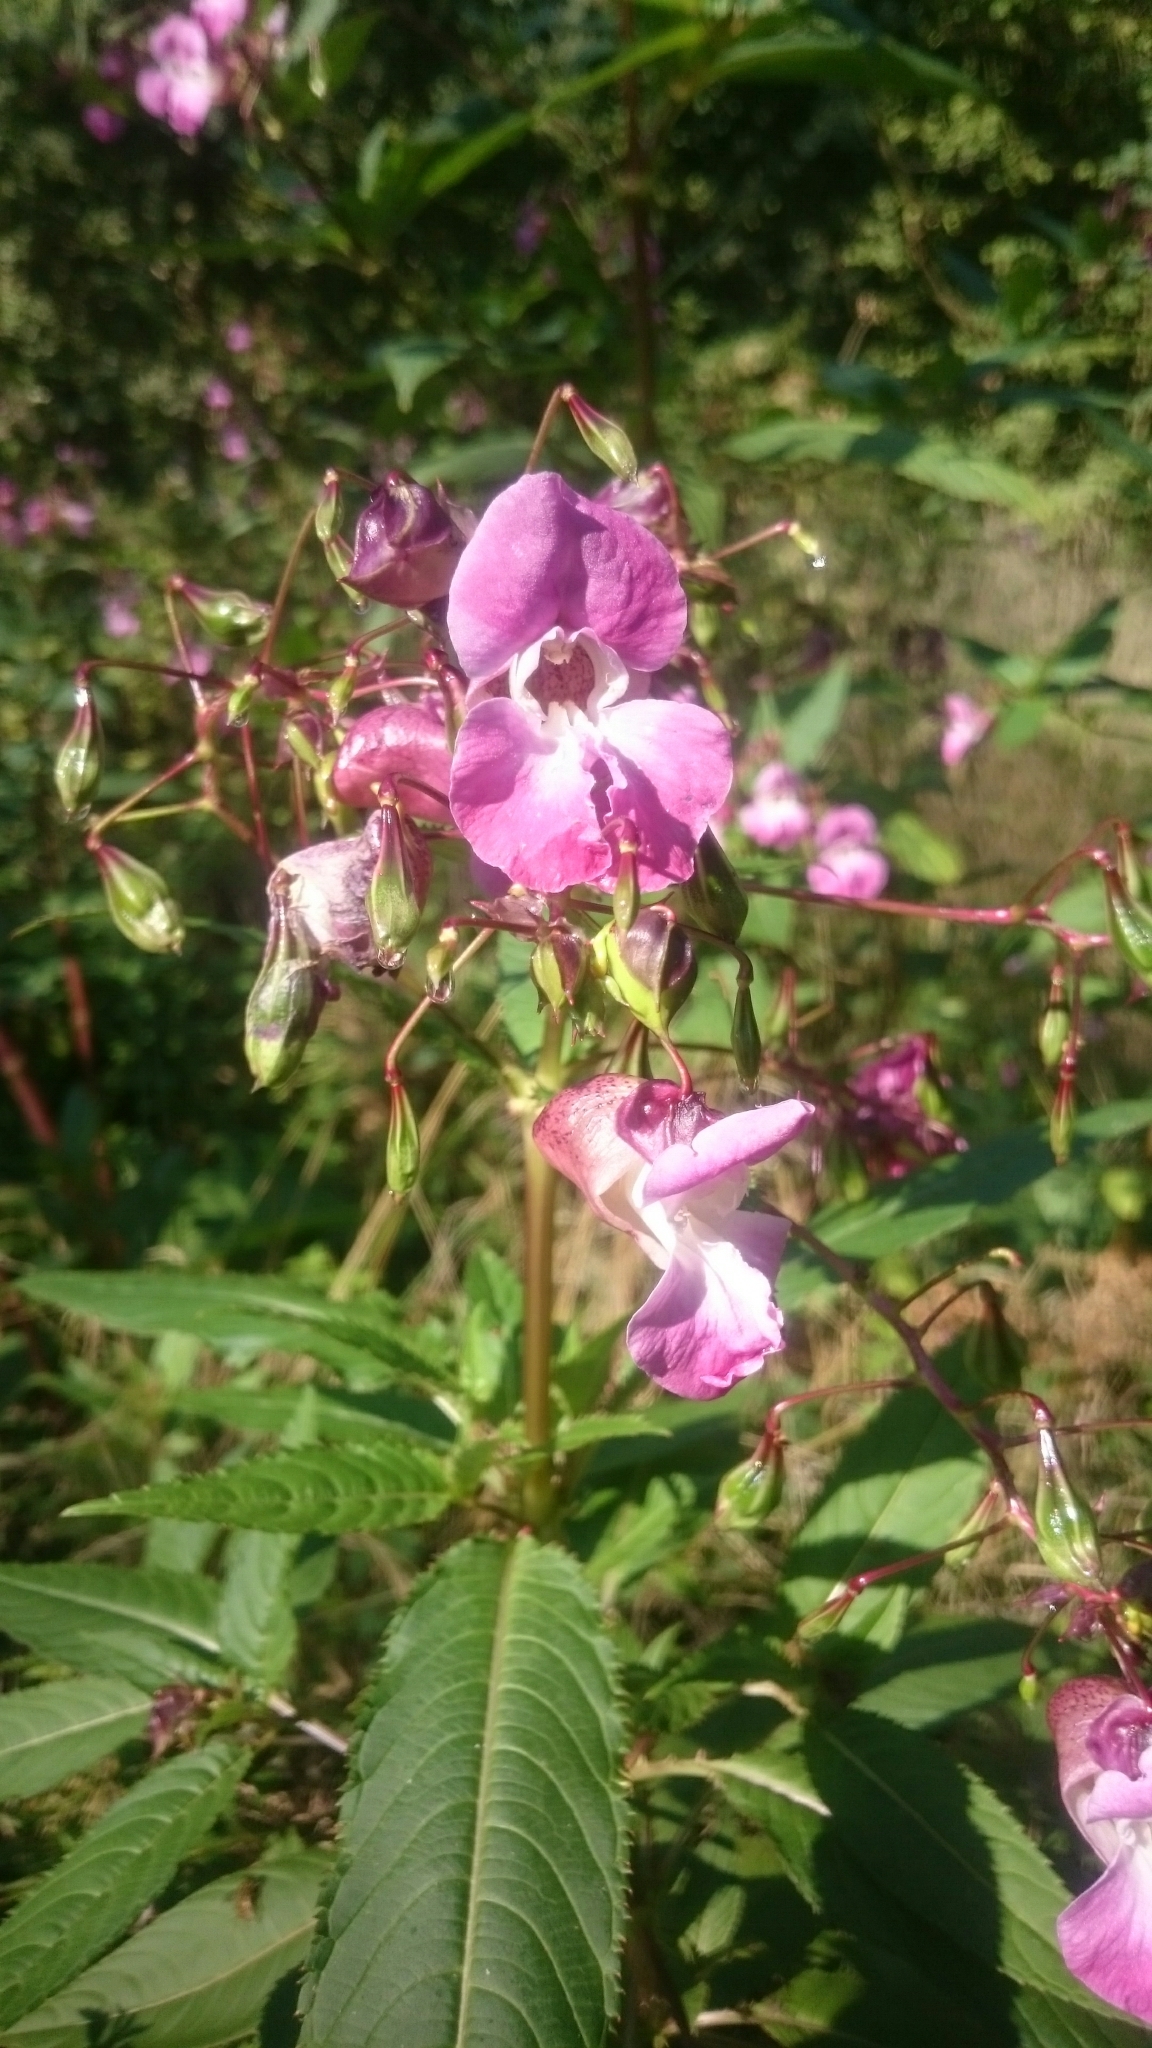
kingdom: Plantae
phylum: Tracheophyta
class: Magnoliopsida
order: Ericales
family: Balsaminaceae
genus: Impatiens
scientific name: Impatiens glandulifera
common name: Himalayan balsam
